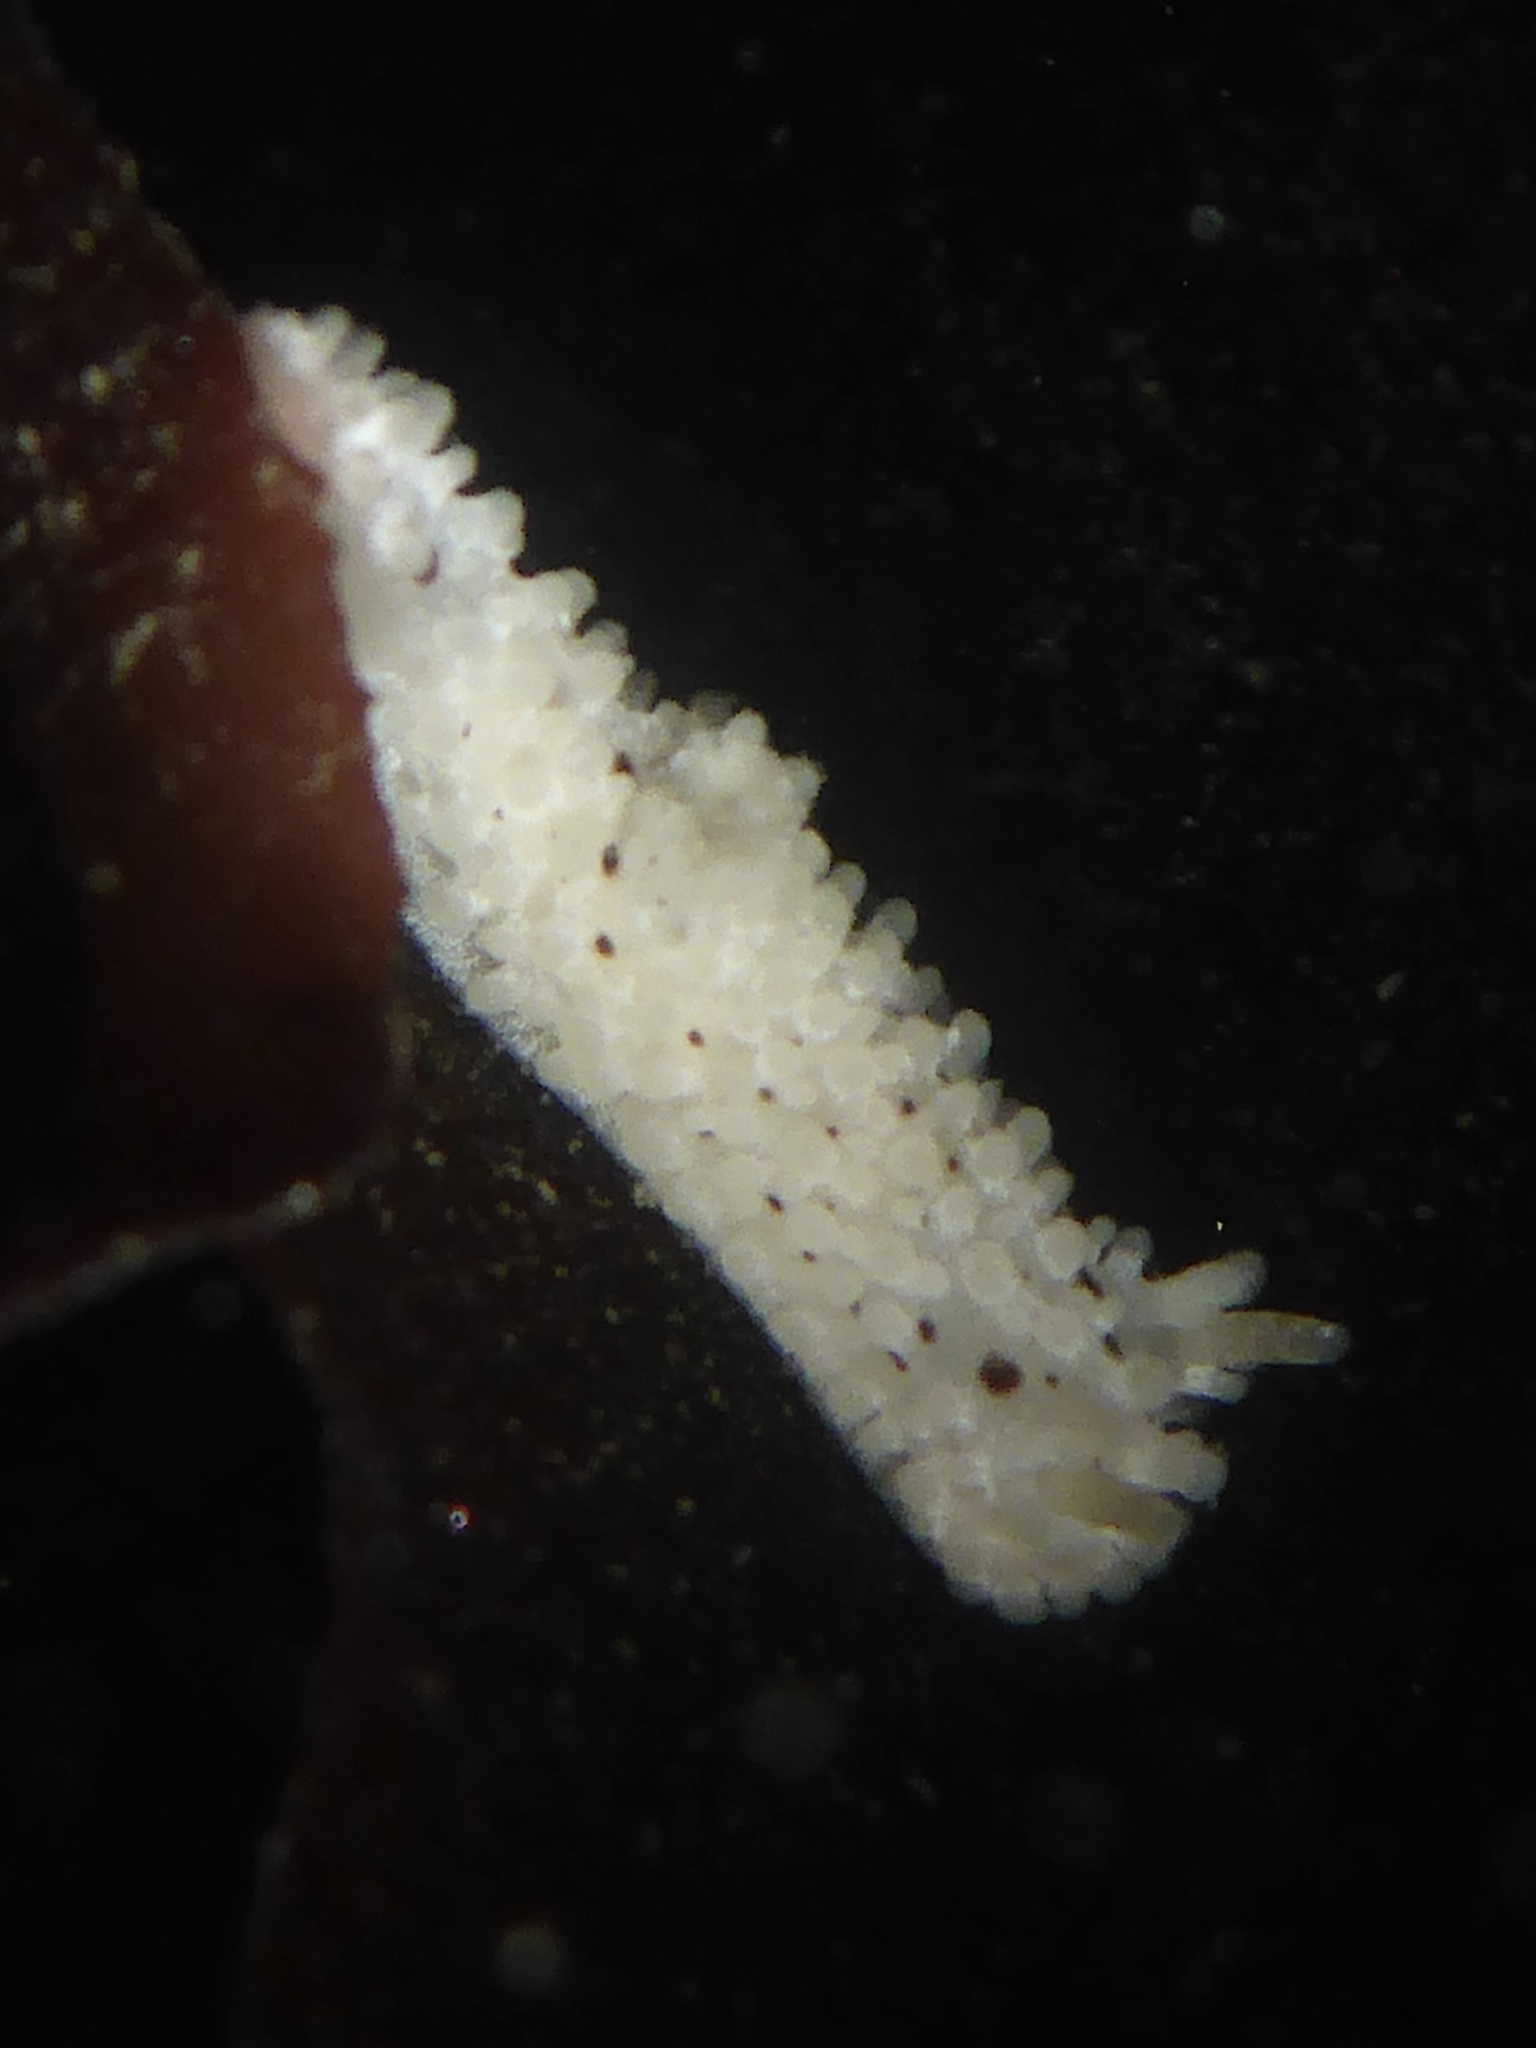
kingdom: Animalia
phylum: Mollusca
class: Gastropoda
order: Nudibranchia
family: Aegiridae
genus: Aegires
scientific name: Aegires albopunctatus
